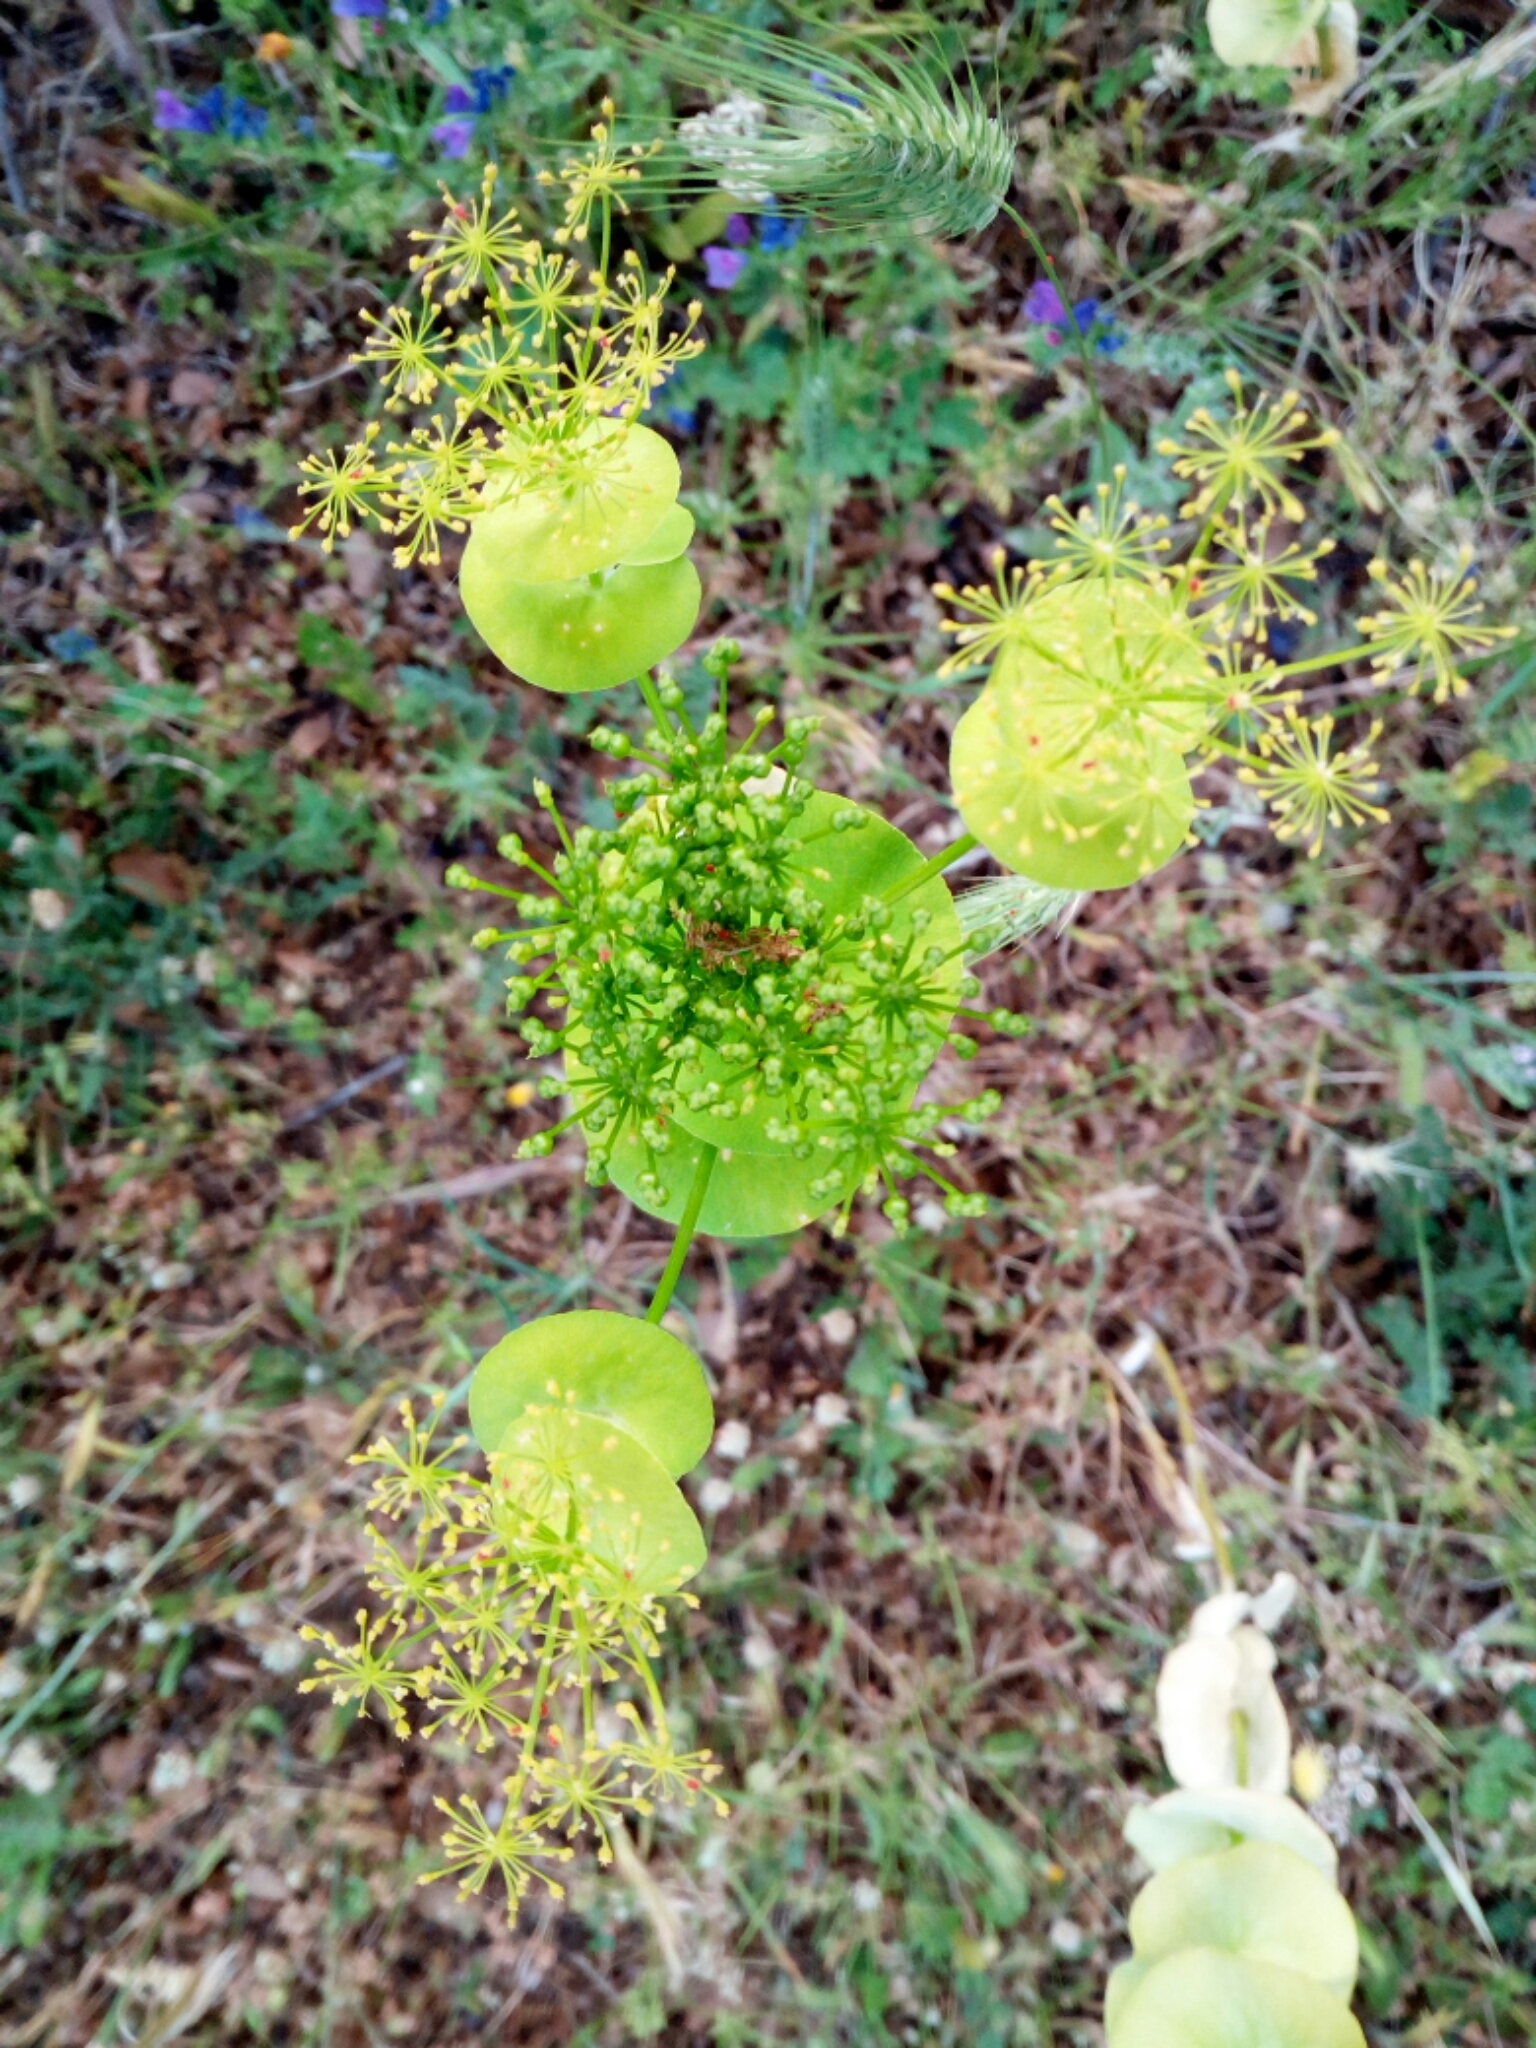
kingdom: Plantae
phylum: Tracheophyta
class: Magnoliopsida
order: Apiales
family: Apiaceae
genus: Smyrnium
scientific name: Smyrnium perfoliatum
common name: Perfoliate alexanders
